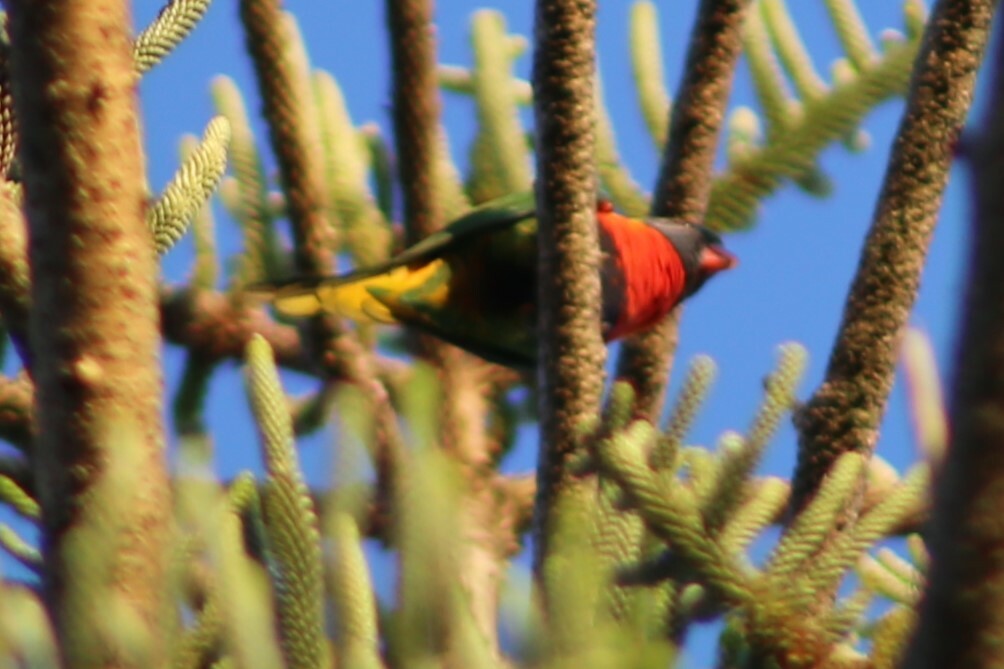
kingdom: Animalia
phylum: Chordata
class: Aves
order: Psittaciformes
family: Psittacidae
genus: Trichoglossus
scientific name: Trichoglossus haematodus
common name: Coconut lorikeet
